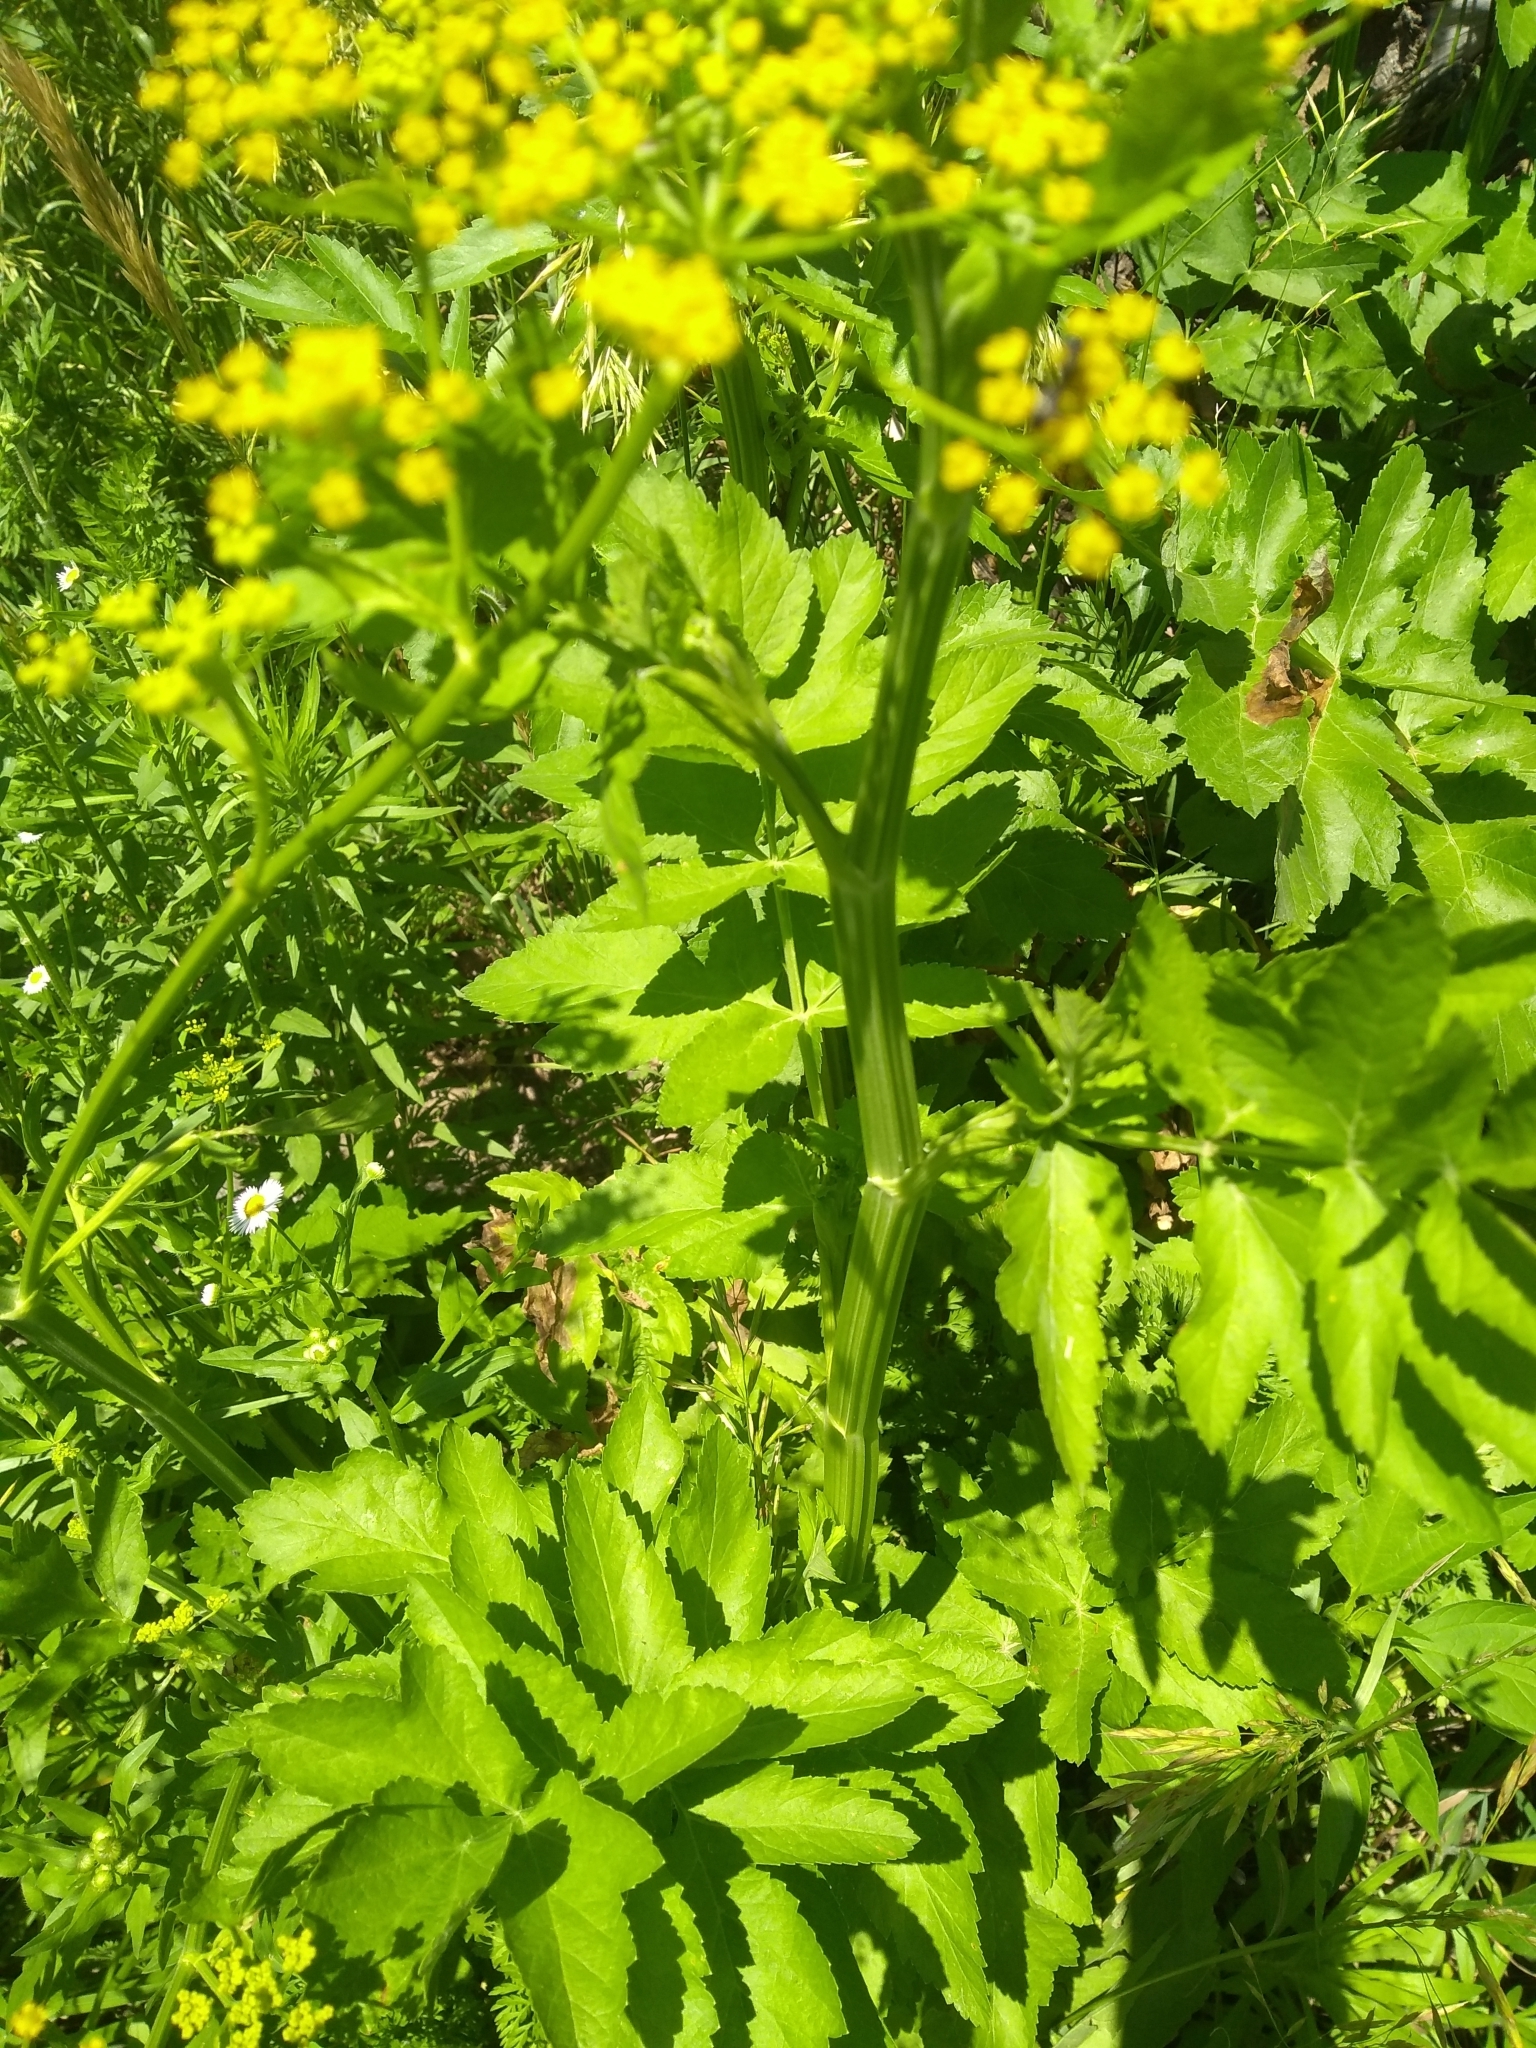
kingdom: Plantae
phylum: Tracheophyta
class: Magnoliopsida
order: Apiales
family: Apiaceae
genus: Pastinaca
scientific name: Pastinaca sativa
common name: Wild parsnip
